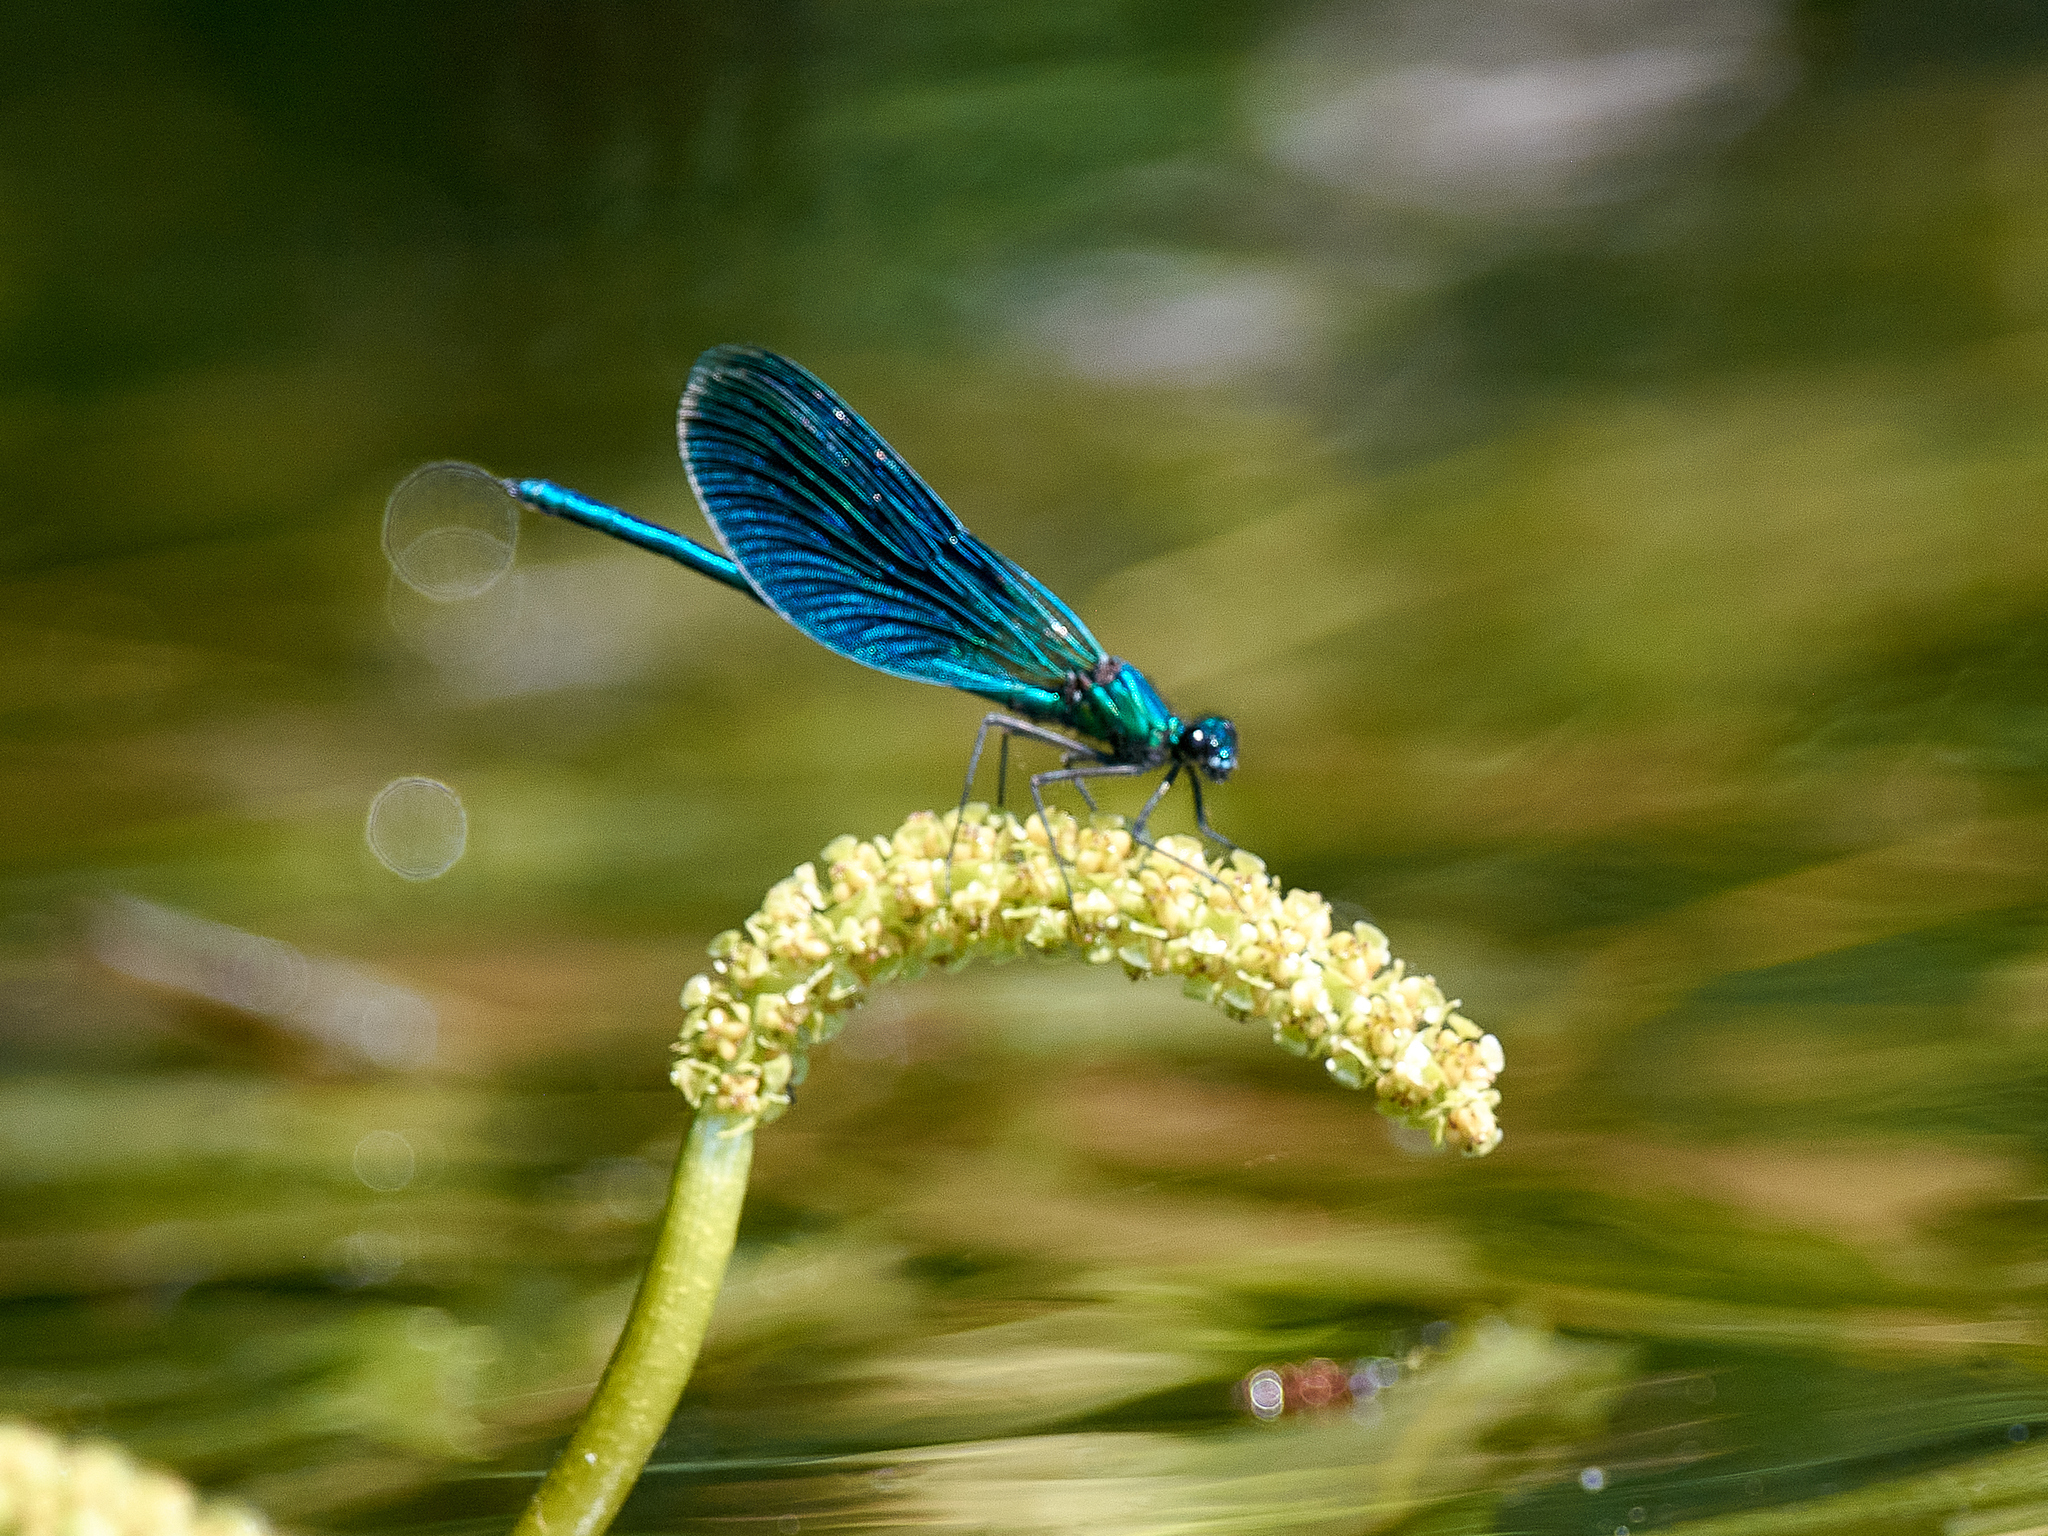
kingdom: Animalia
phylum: Arthropoda
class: Insecta
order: Odonata
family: Calopterygidae
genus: Calopteryx
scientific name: Calopteryx splendens
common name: Banded demoiselle
